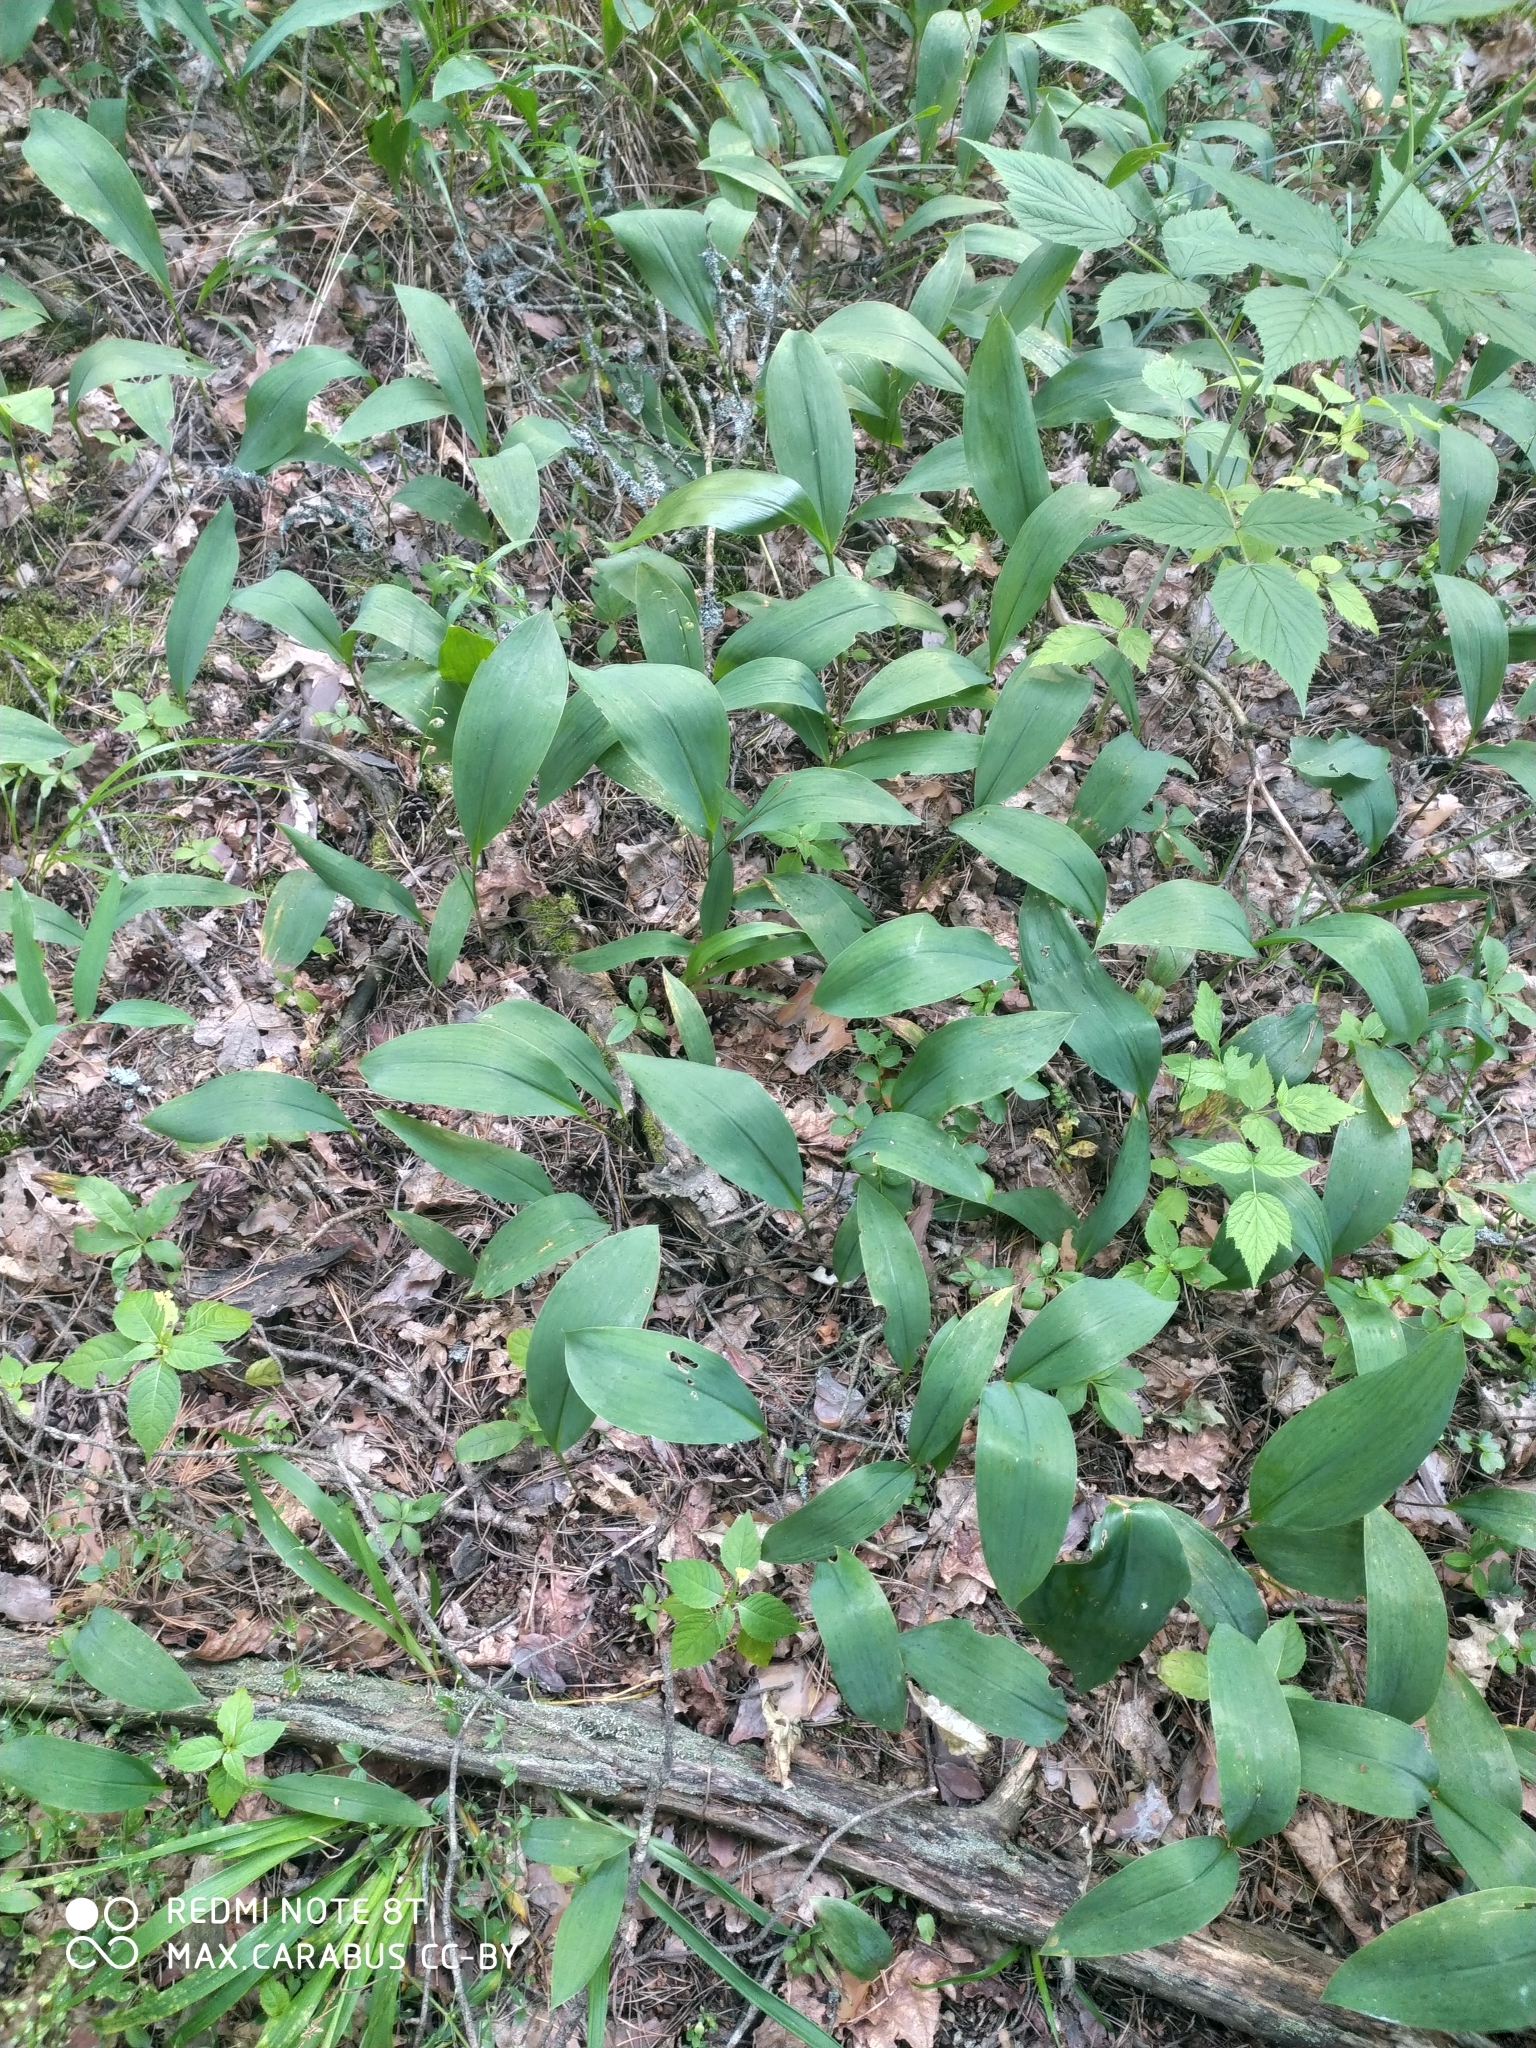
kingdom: Plantae
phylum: Tracheophyta
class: Liliopsida
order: Asparagales
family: Asparagaceae
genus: Convallaria
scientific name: Convallaria majalis
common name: Lily-of-the-valley
